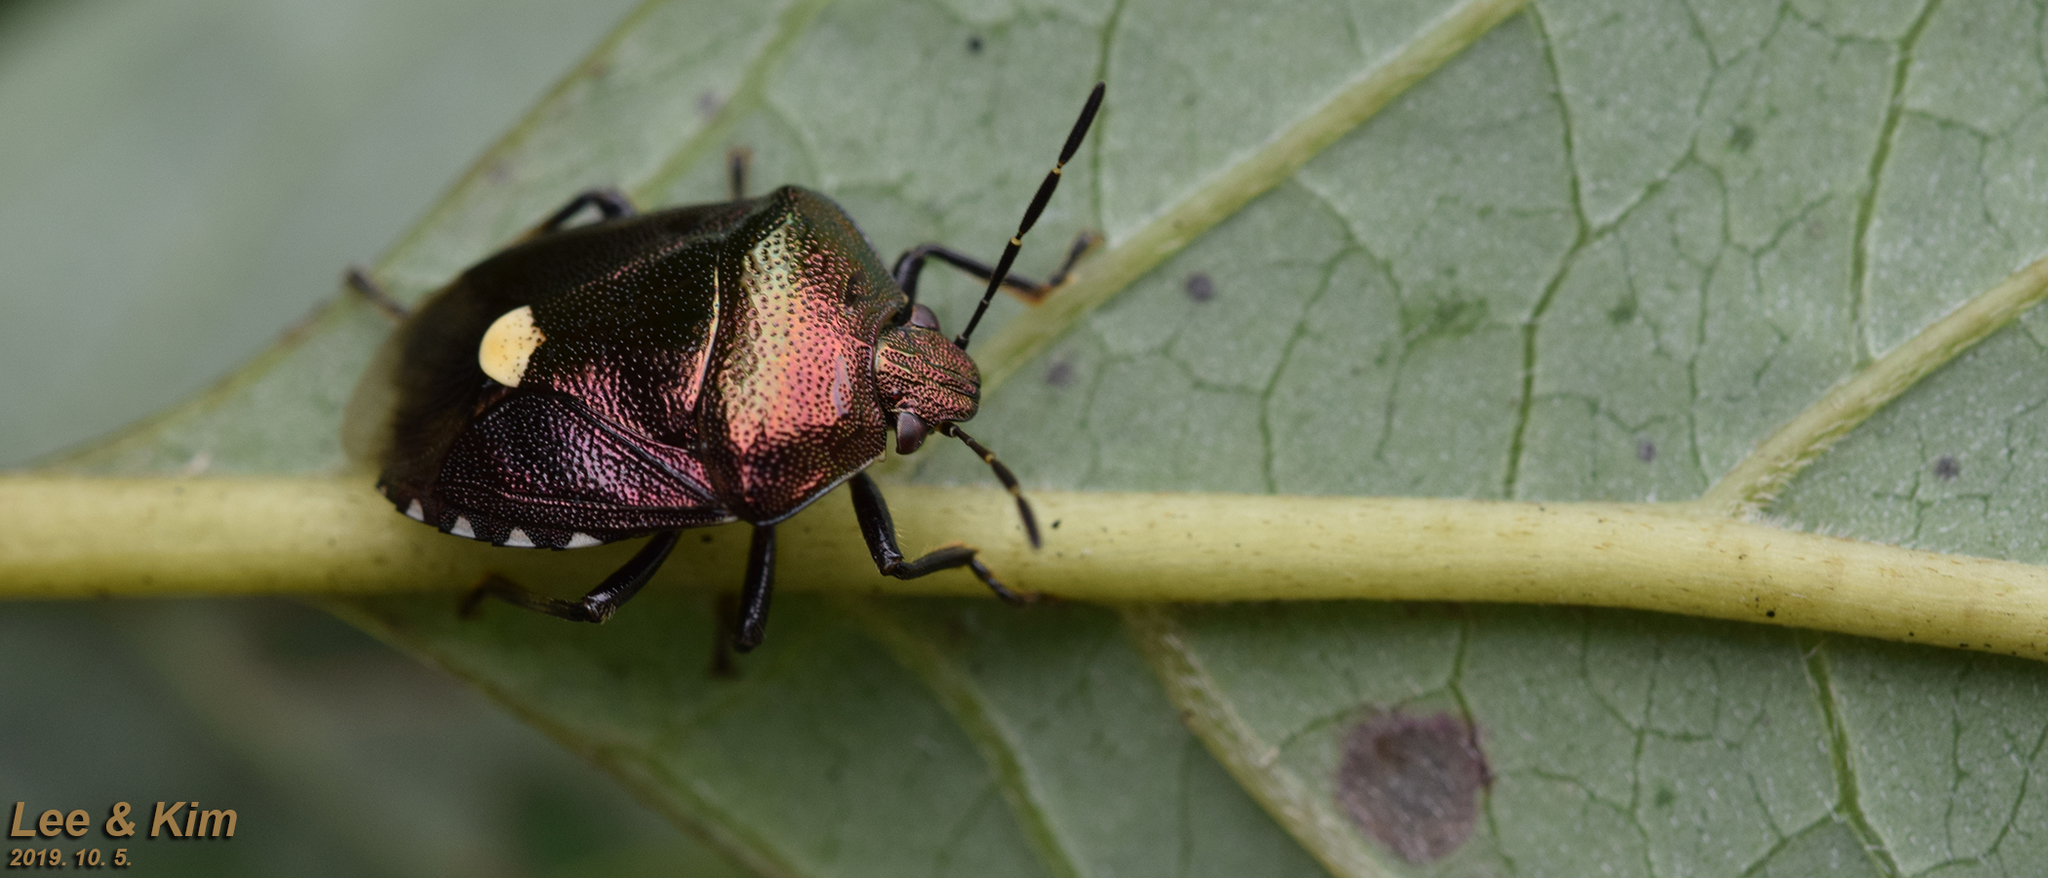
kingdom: Animalia
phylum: Arthropoda
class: Insecta
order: Hemiptera
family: Pentatomidae
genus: Menida
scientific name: Menida violacea
